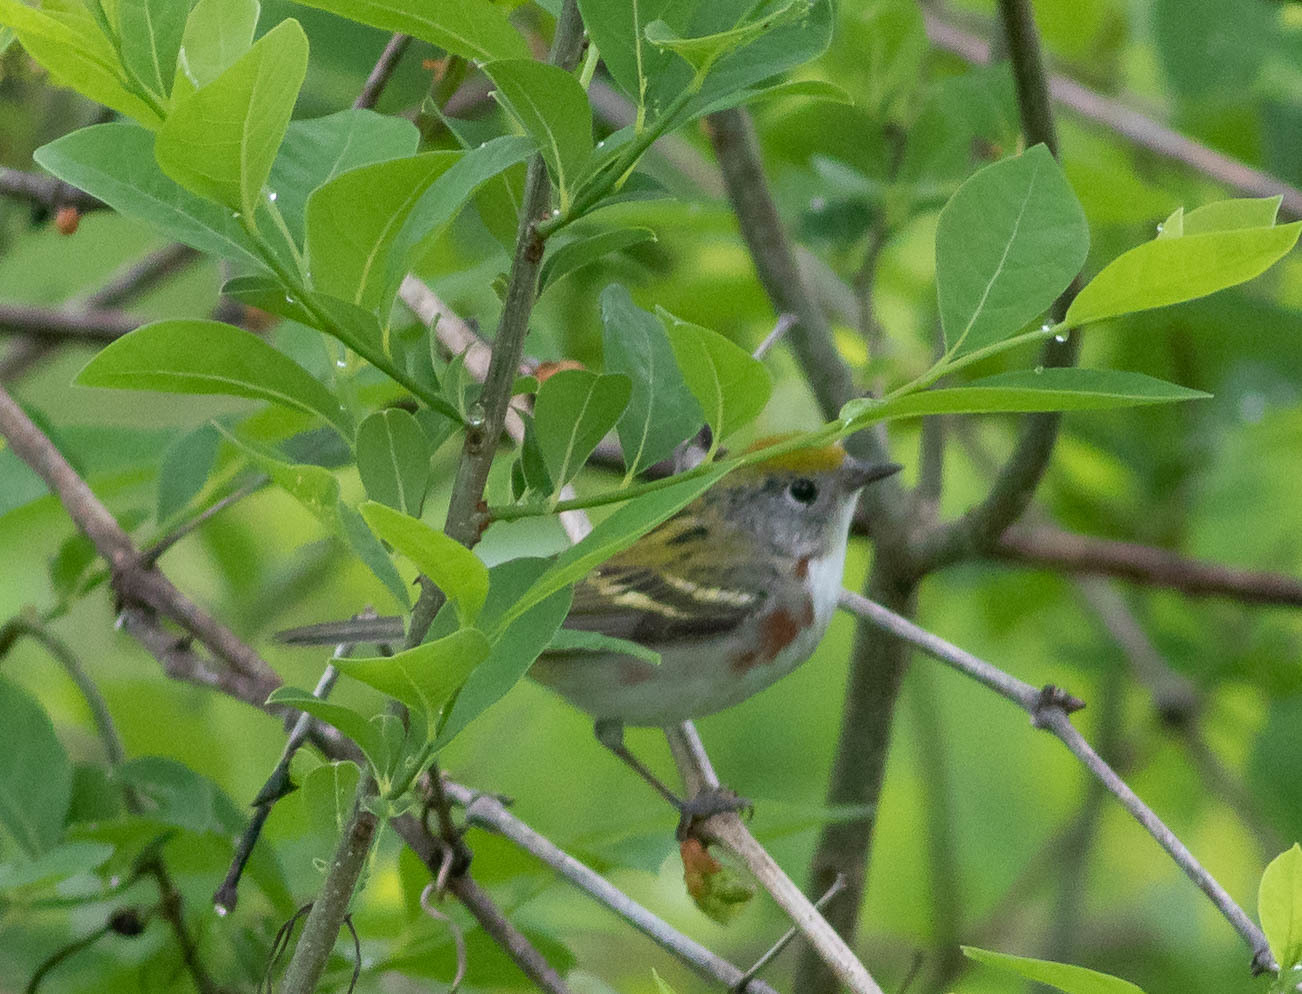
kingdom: Animalia
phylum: Chordata
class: Aves
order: Passeriformes
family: Parulidae
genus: Setophaga
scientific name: Setophaga pensylvanica
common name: Chestnut-sided warbler
